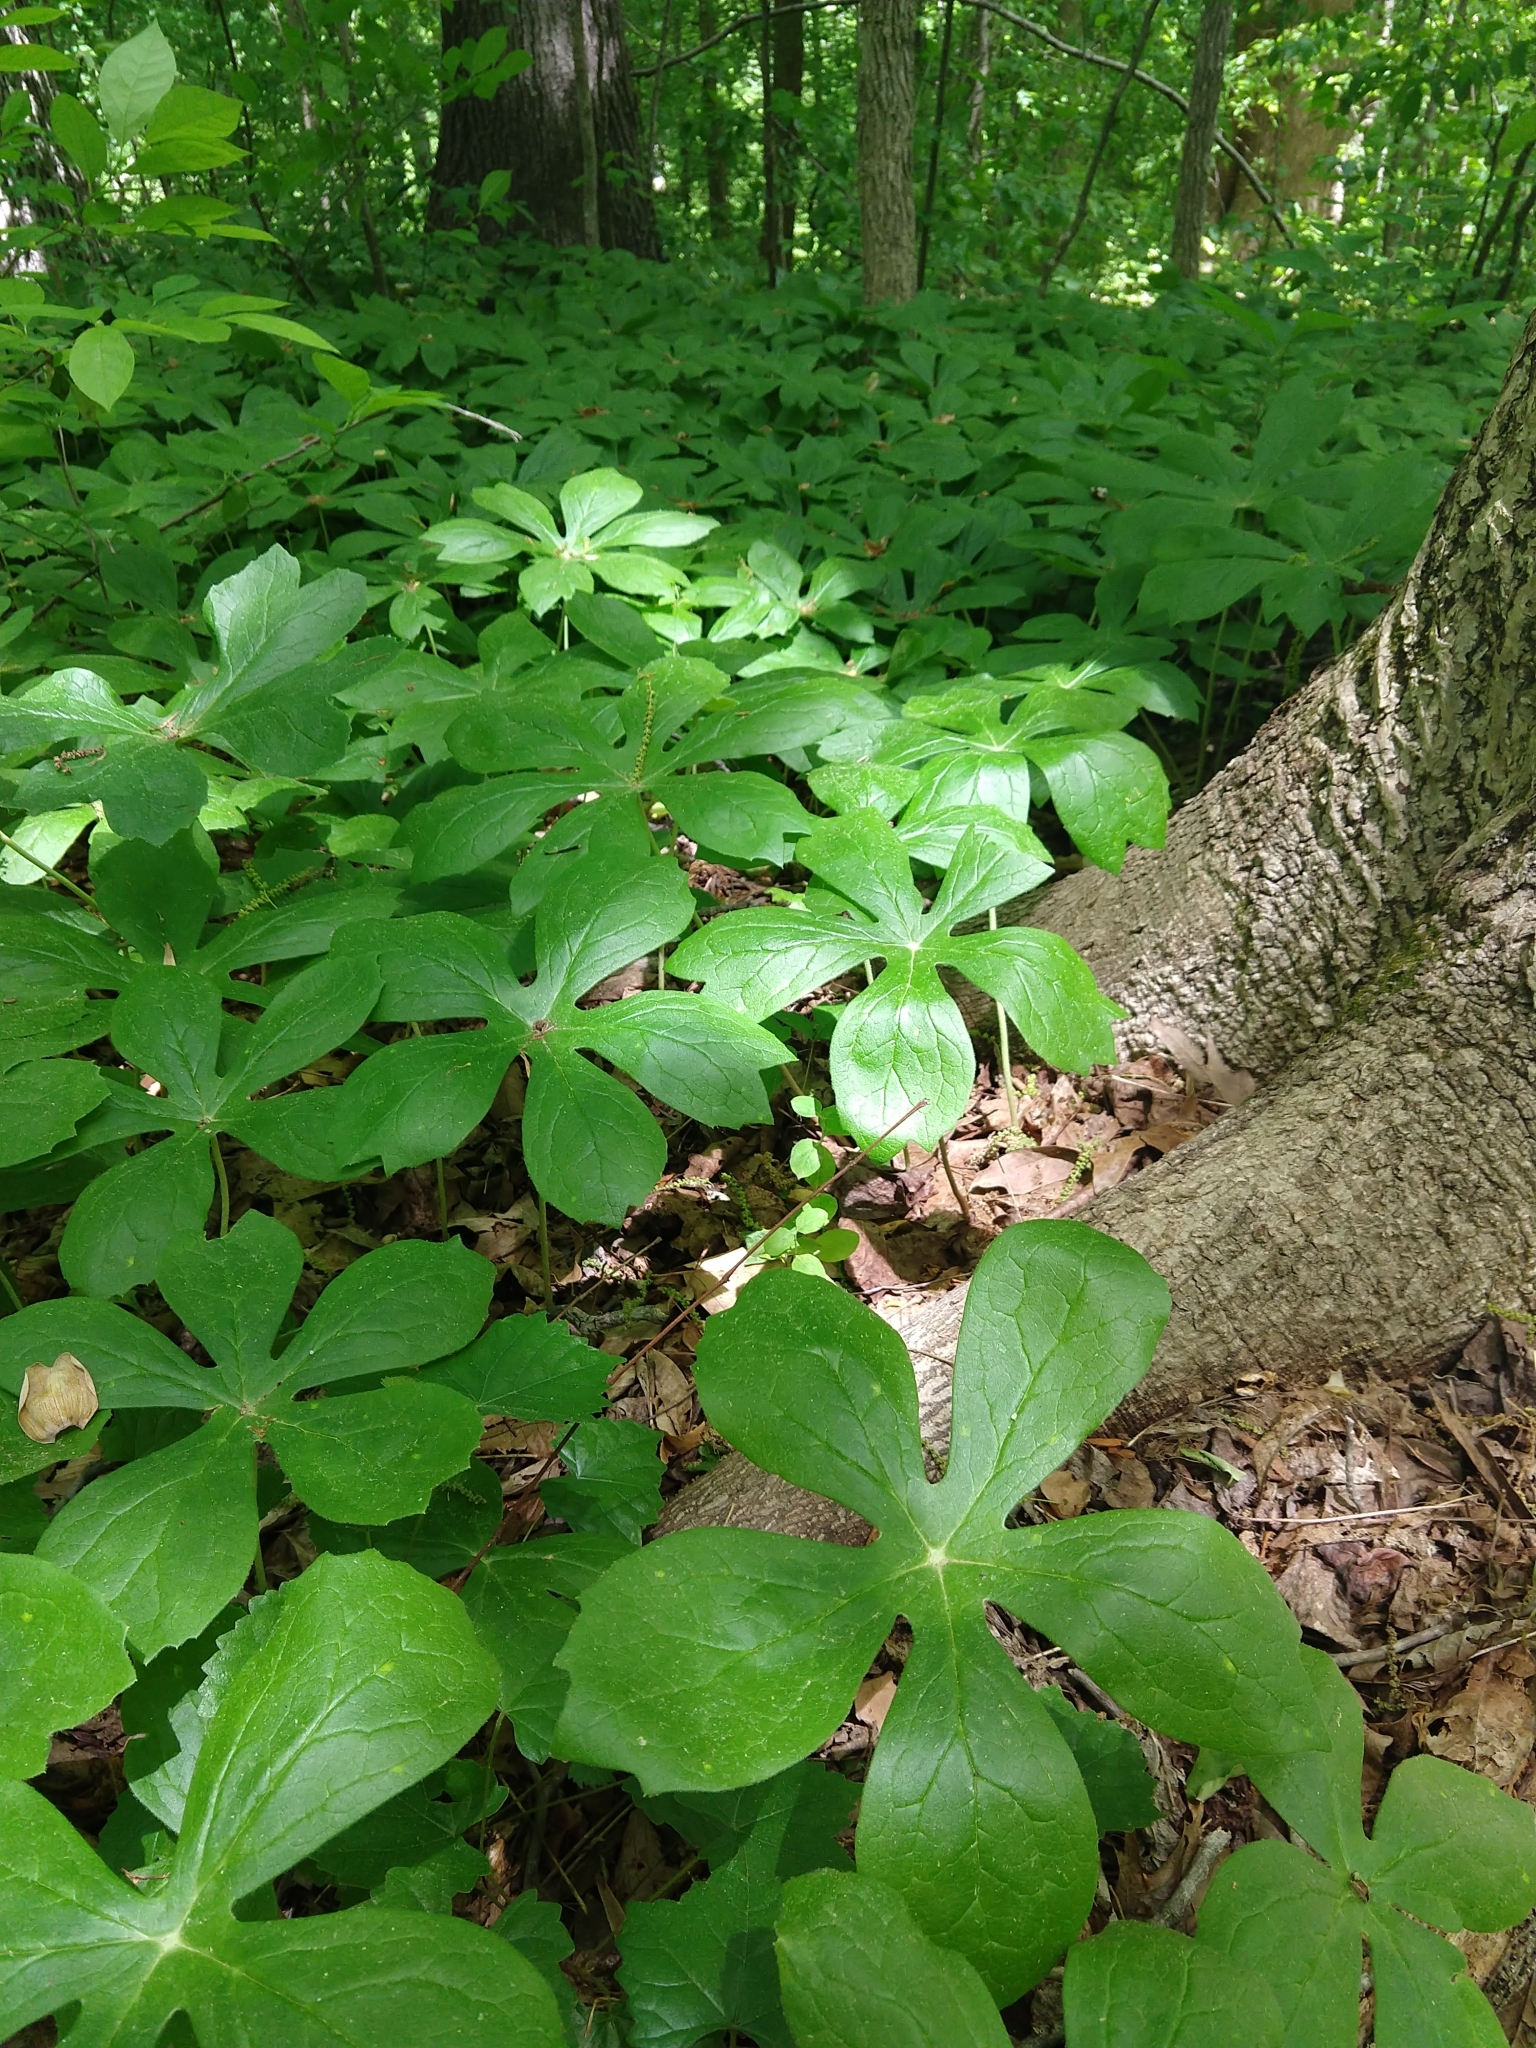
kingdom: Plantae
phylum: Tracheophyta
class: Magnoliopsida
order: Ranunculales
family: Berberidaceae
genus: Podophyllum
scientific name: Podophyllum peltatum
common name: Wild mandrake
